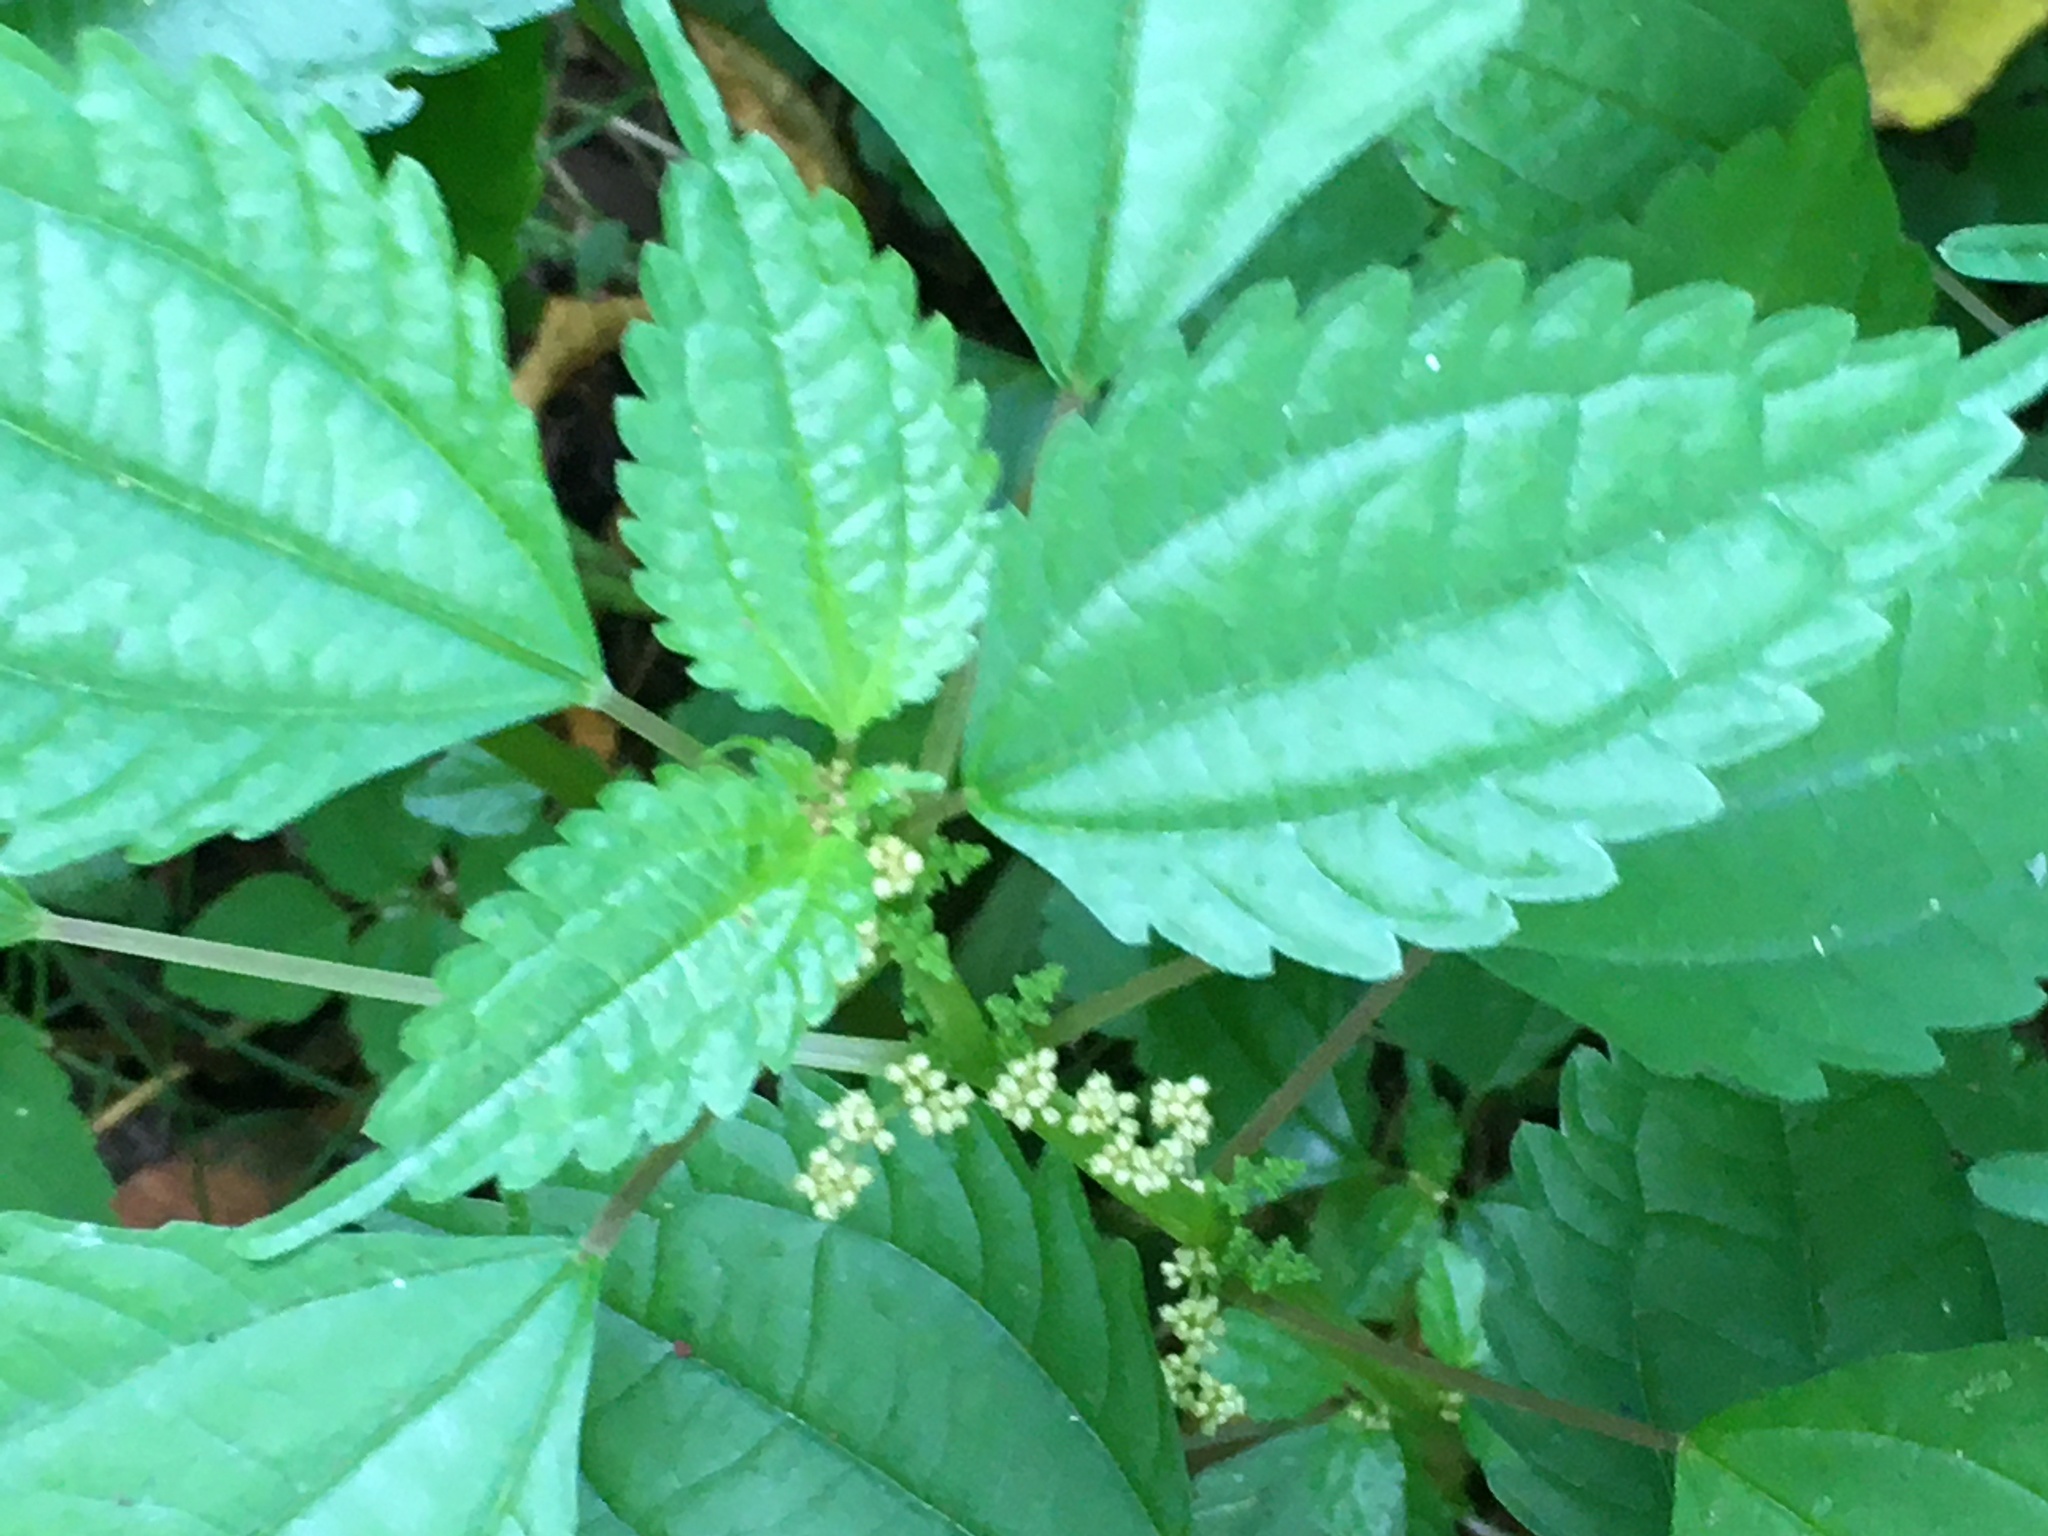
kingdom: Plantae
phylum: Tracheophyta
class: Magnoliopsida
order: Rosales
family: Urticaceae
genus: Pilea
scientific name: Pilea pumila
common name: Clearweed
